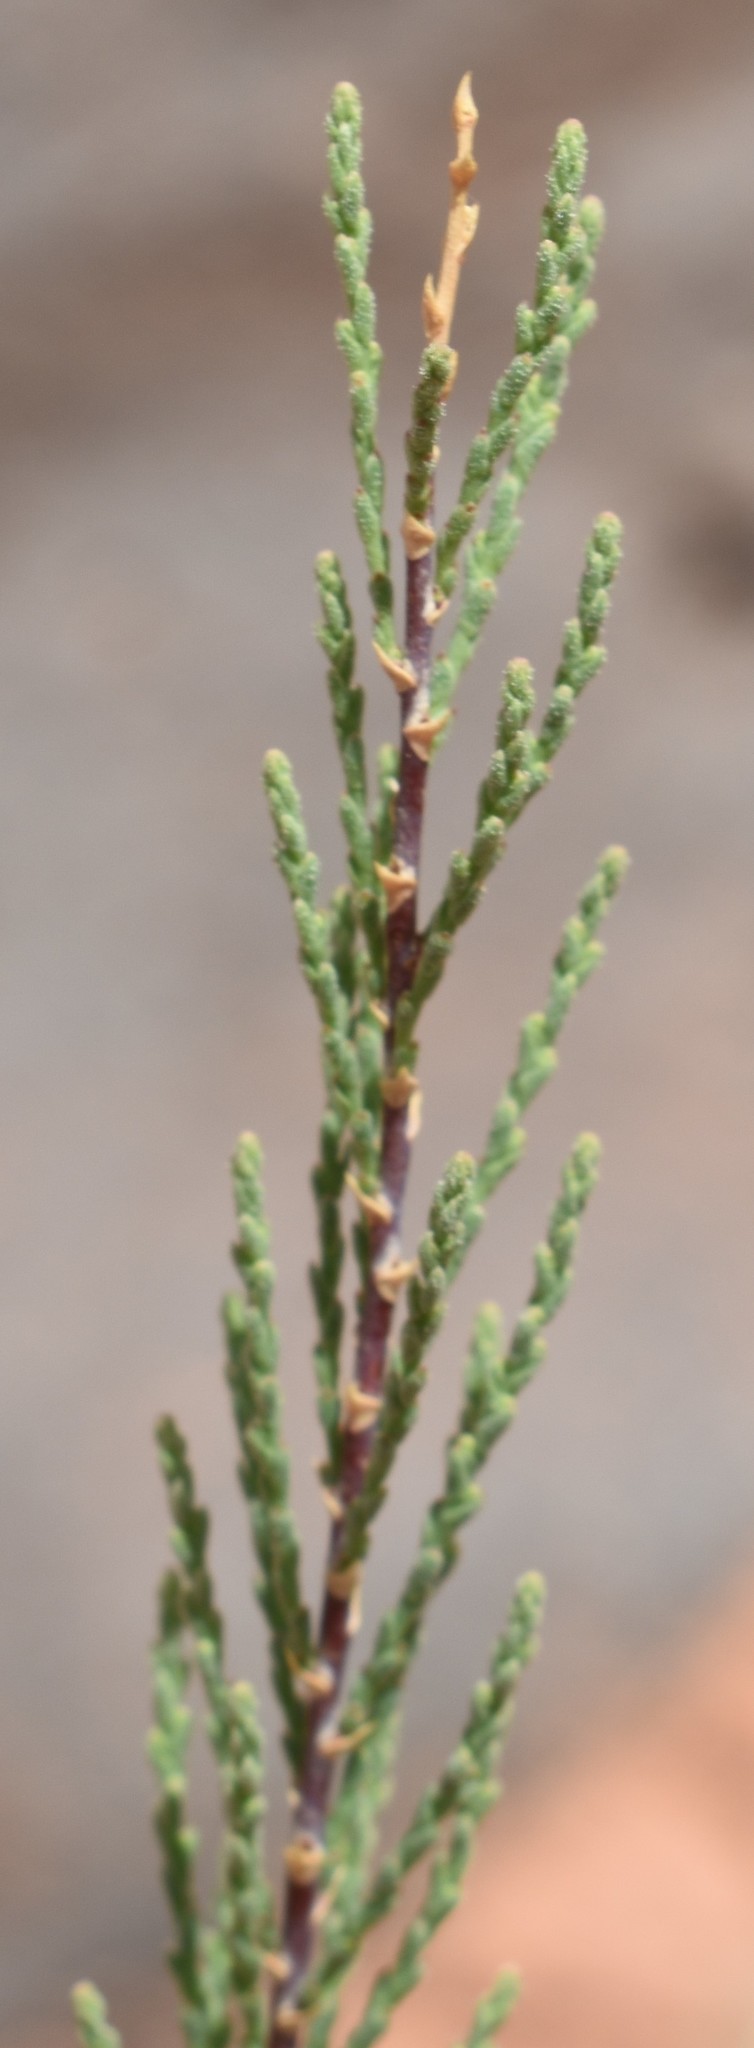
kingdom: Plantae
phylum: Tracheophyta
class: Magnoliopsida
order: Caryophyllales
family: Tamaricaceae
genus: Tamarix
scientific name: Tamarix ramosissima
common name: Pink tamarisk
